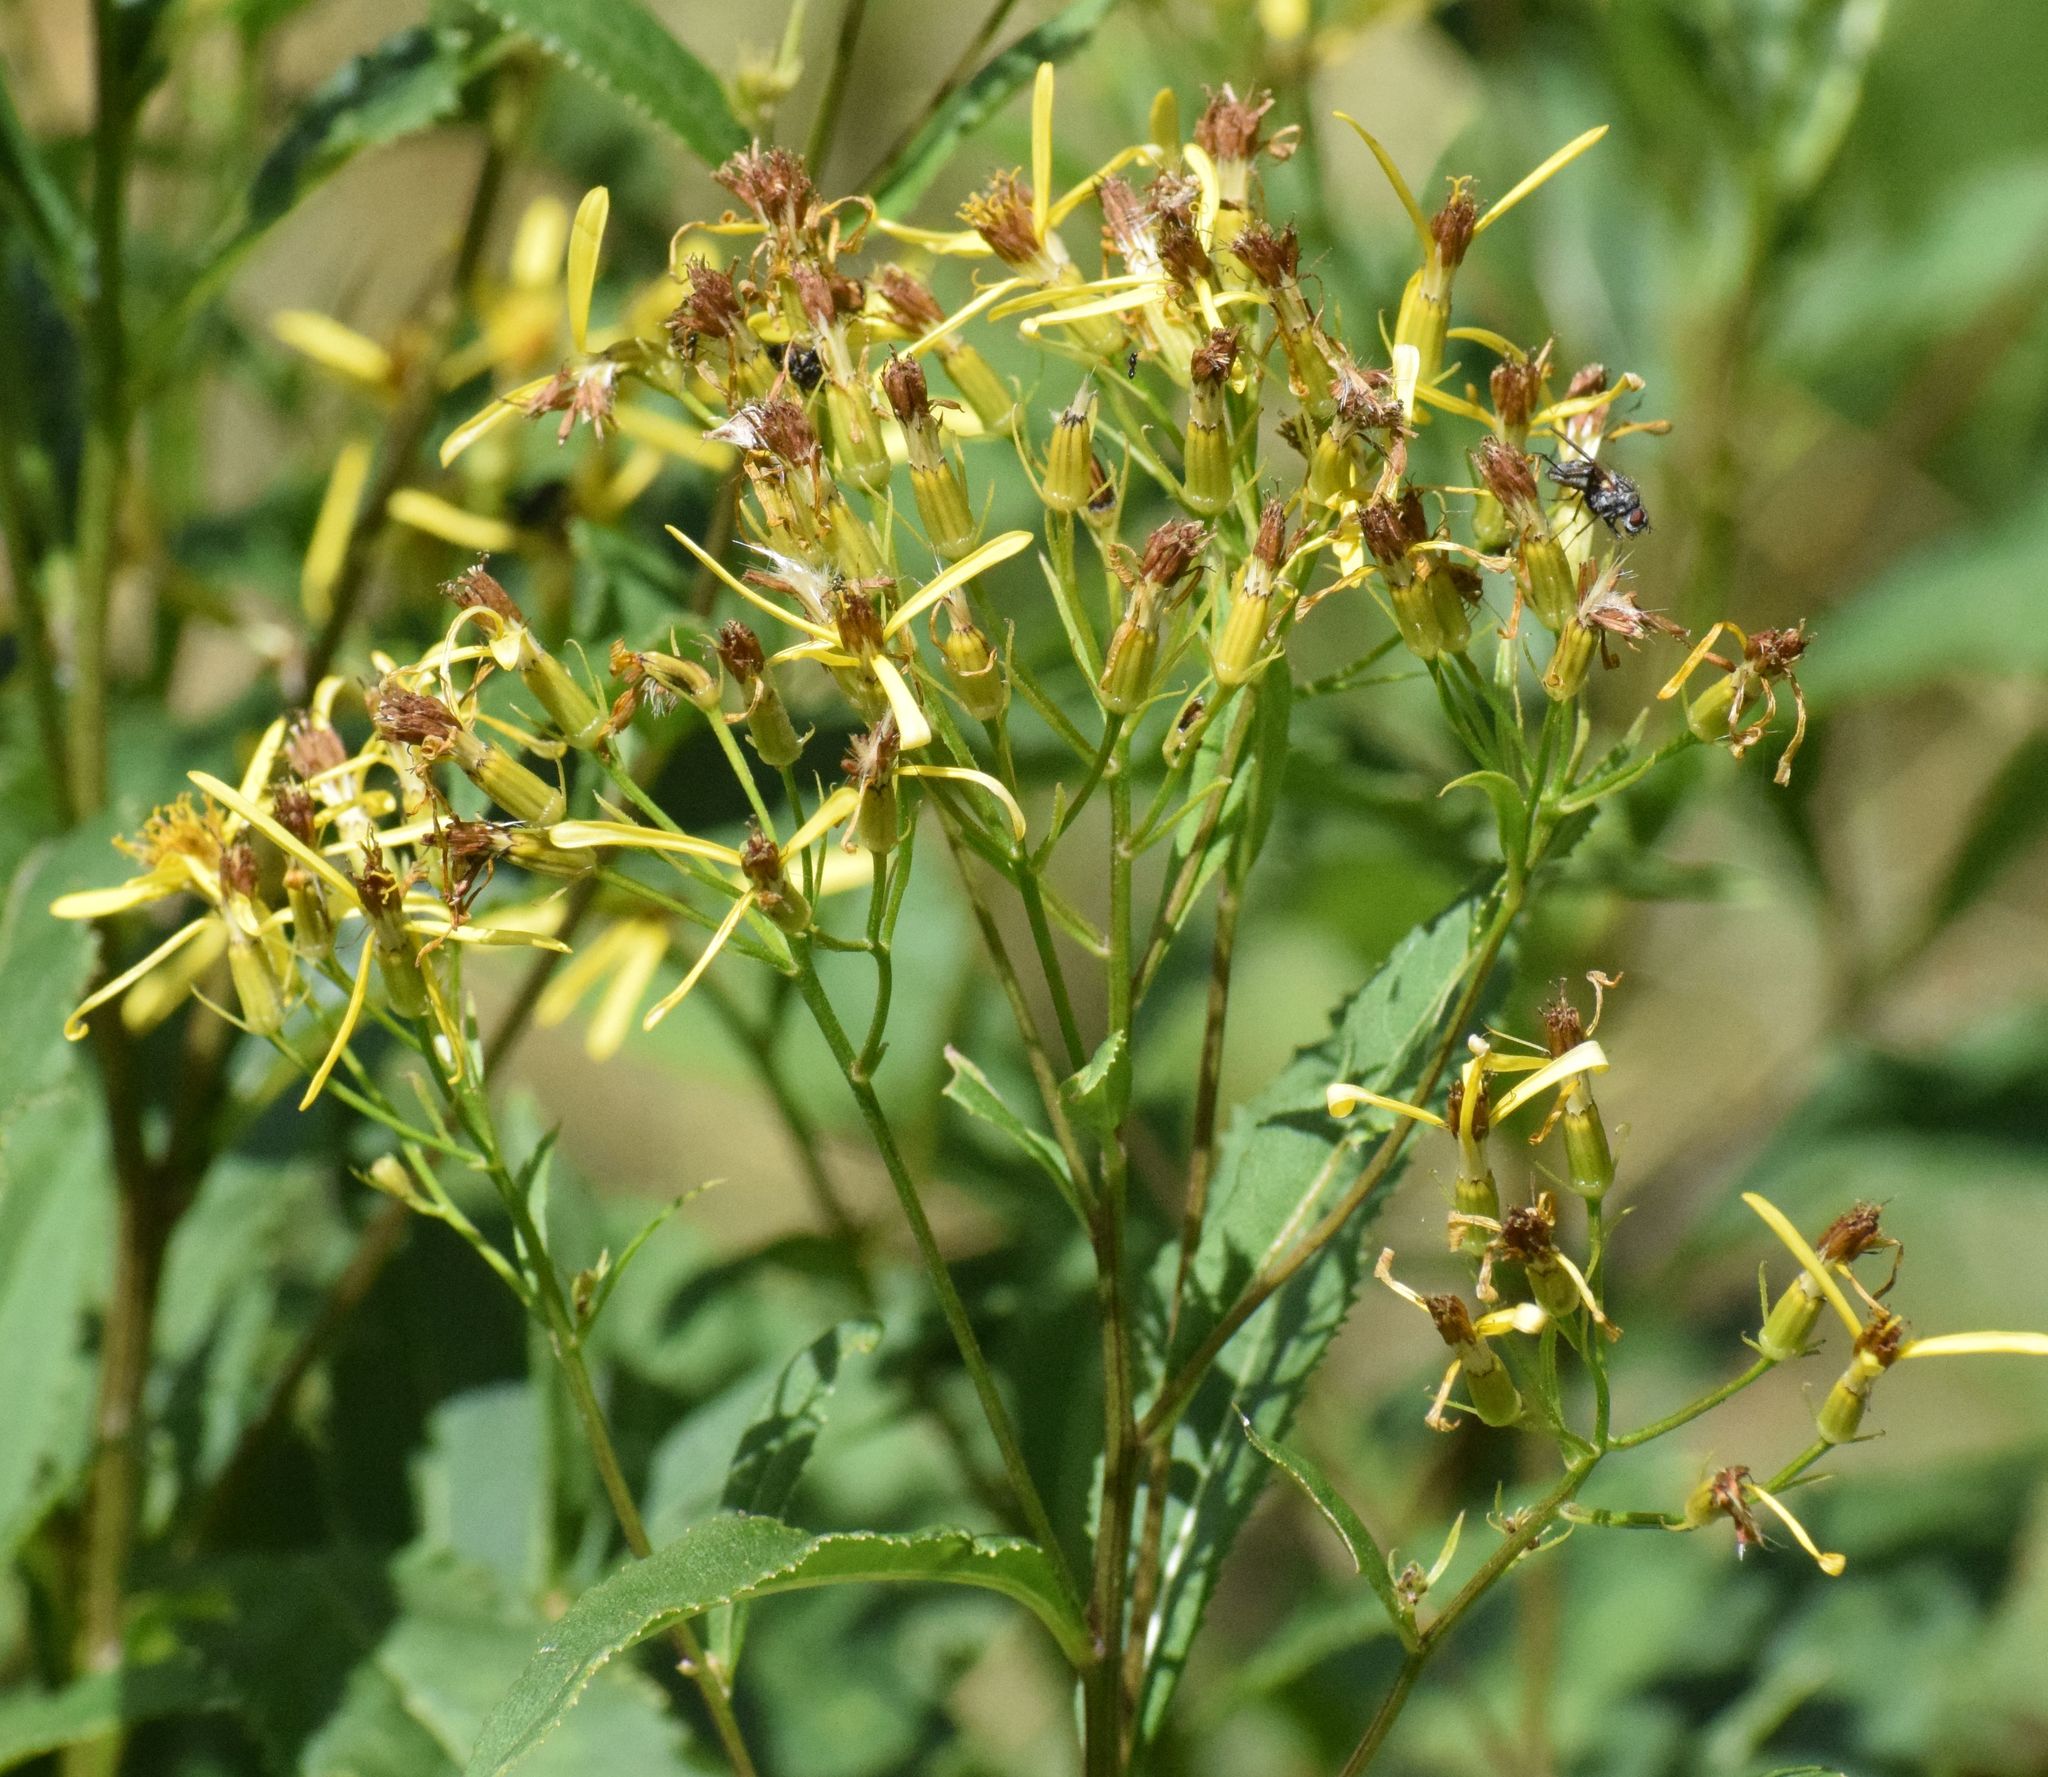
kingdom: Plantae
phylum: Tracheophyta
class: Magnoliopsida
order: Asterales
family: Asteraceae
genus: Senecio
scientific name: Senecio ovatus
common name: Wood ragwort
